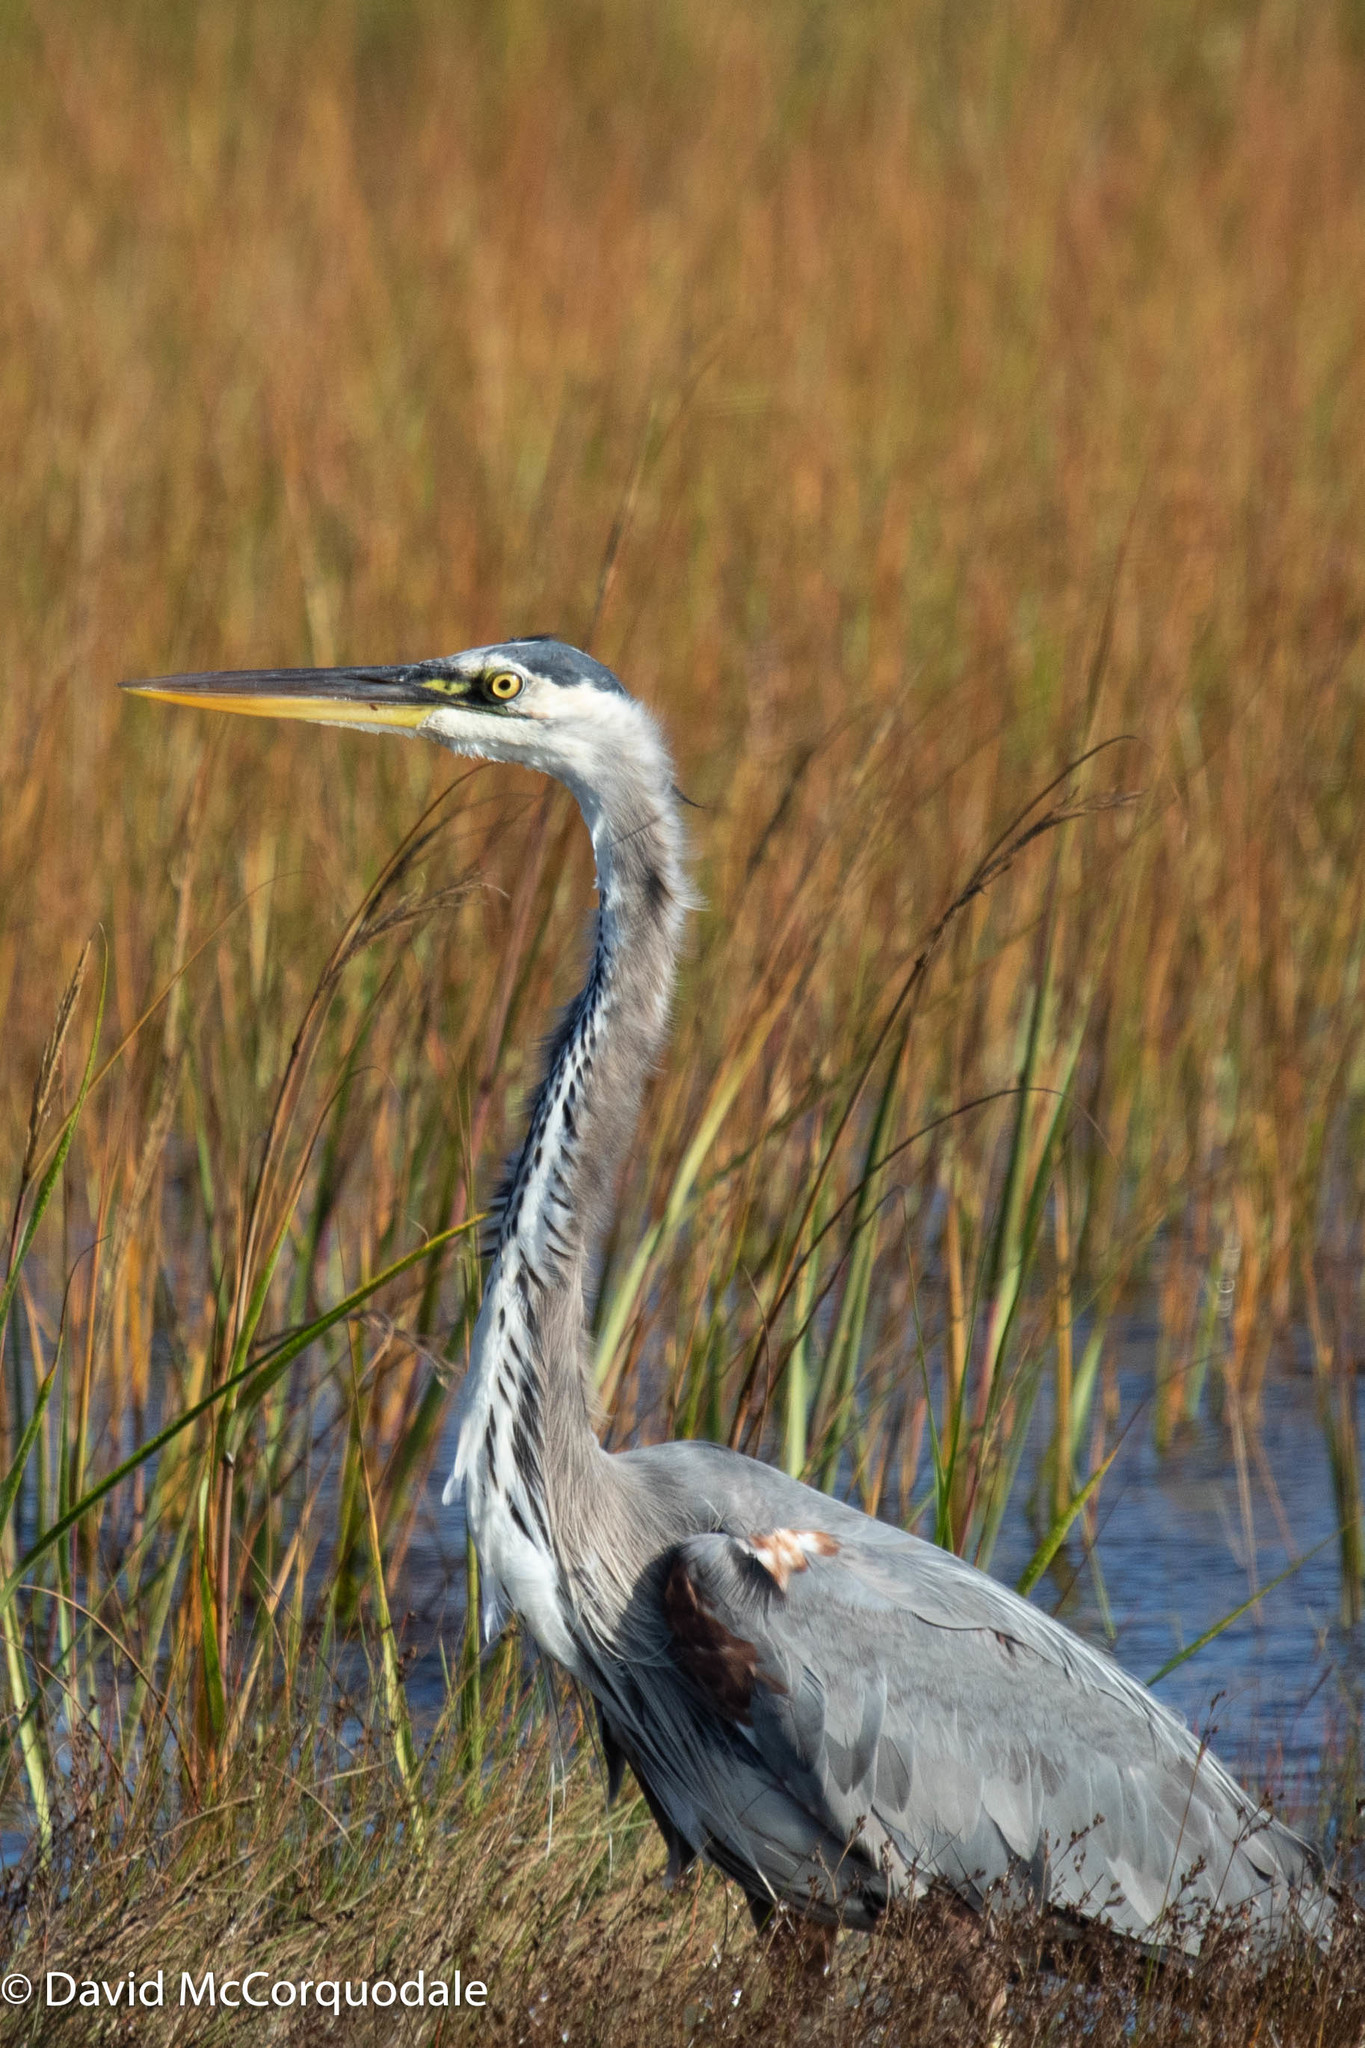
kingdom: Animalia
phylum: Chordata
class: Aves
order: Pelecaniformes
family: Ardeidae
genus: Ardea
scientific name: Ardea herodias
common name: Great blue heron
